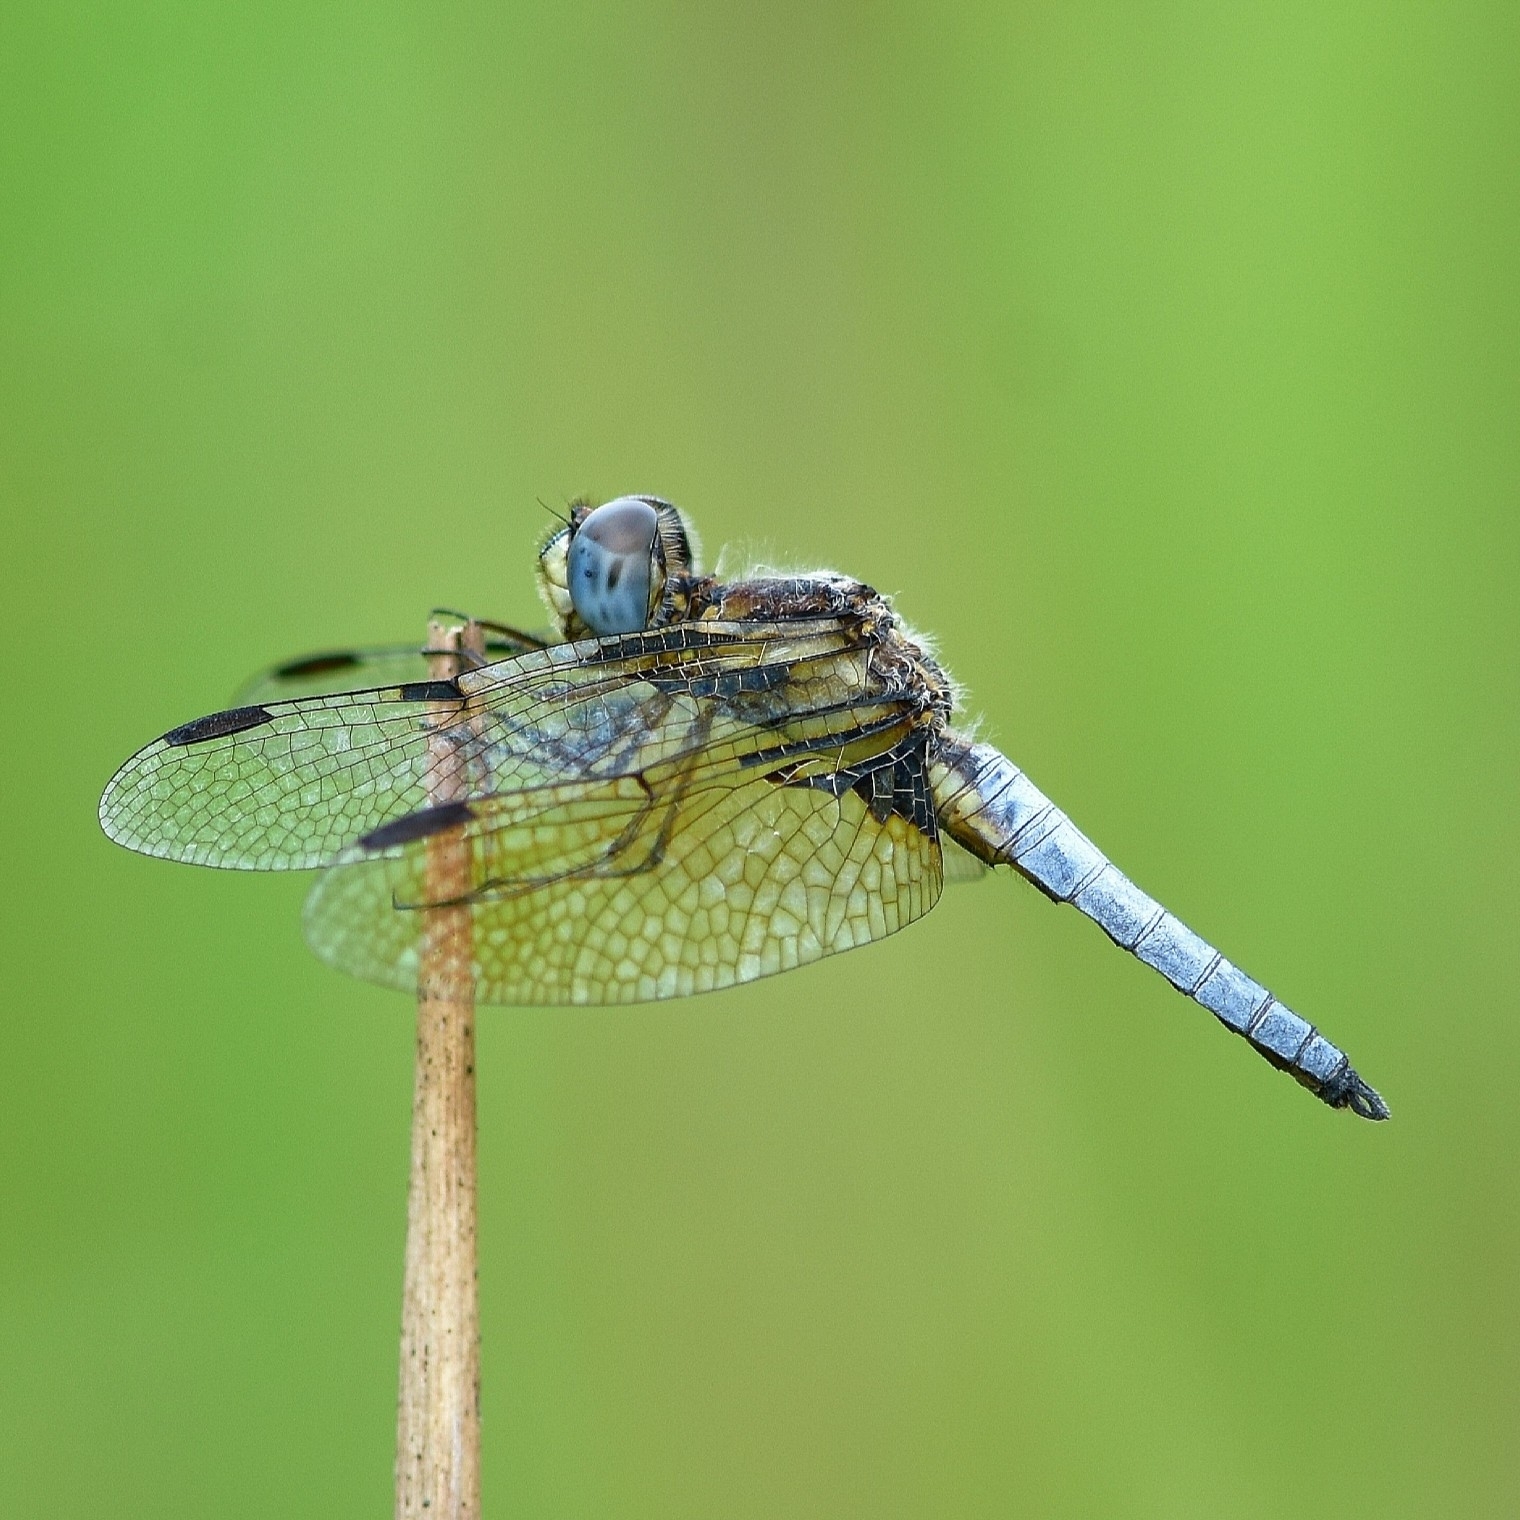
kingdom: Animalia
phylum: Arthropoda
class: Insecta
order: Odonata
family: Libellulidae
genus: Palpopleura
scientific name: Palpopleura sexmaculata
